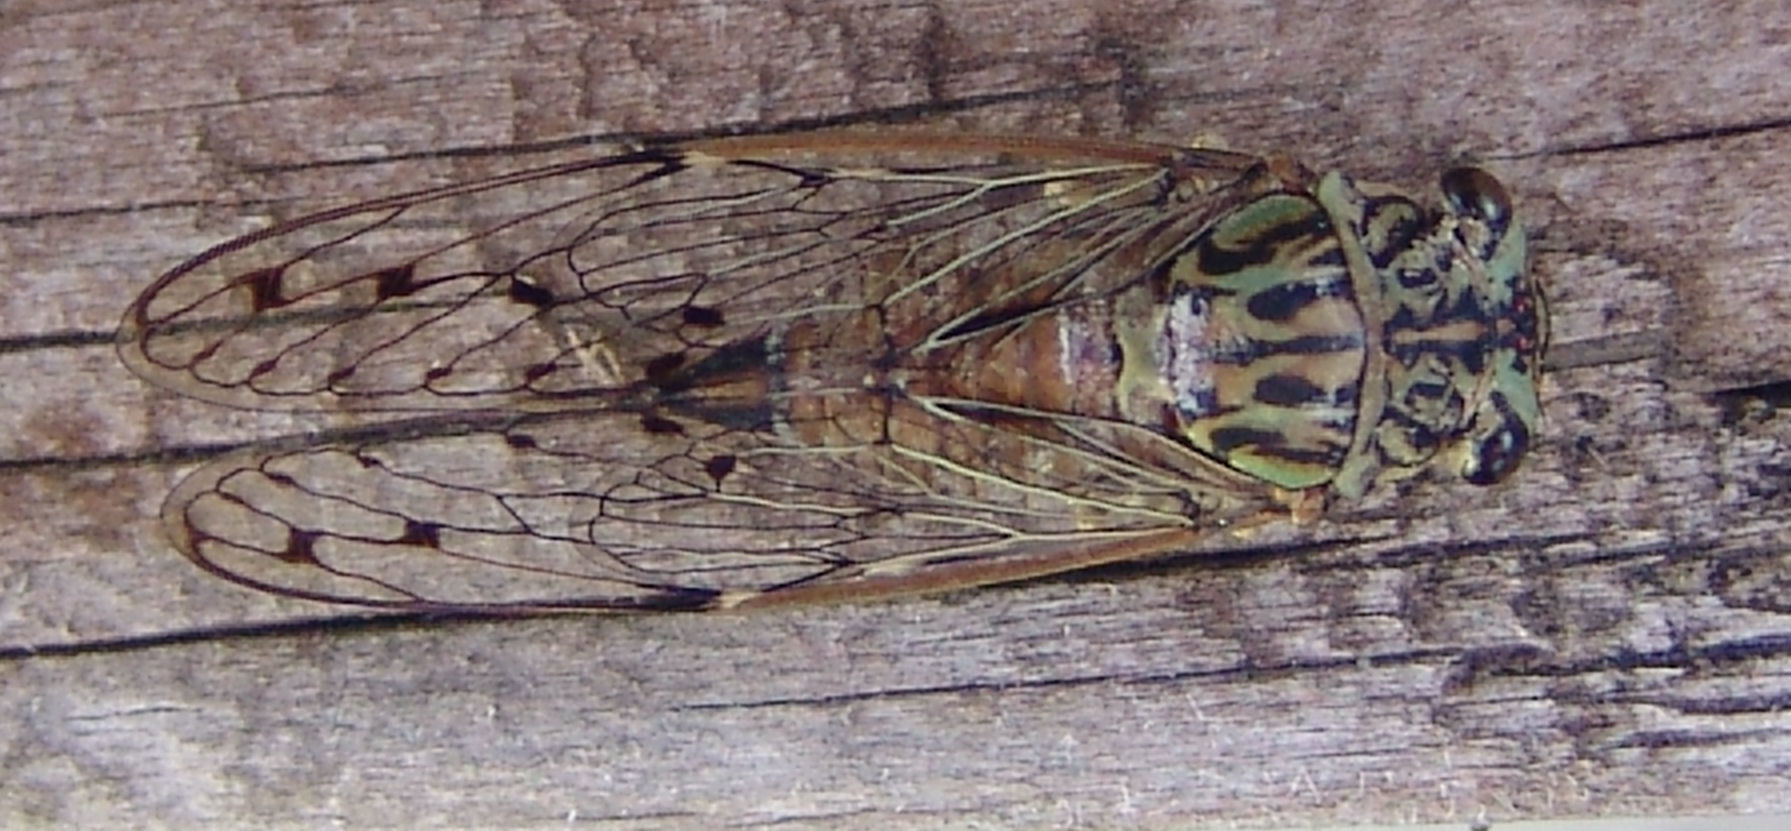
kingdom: Animalia
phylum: Arthropoda
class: Insecta
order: Hemiptera
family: Cicadidae
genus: Neocicada
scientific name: Neocicada hieroglyphica
